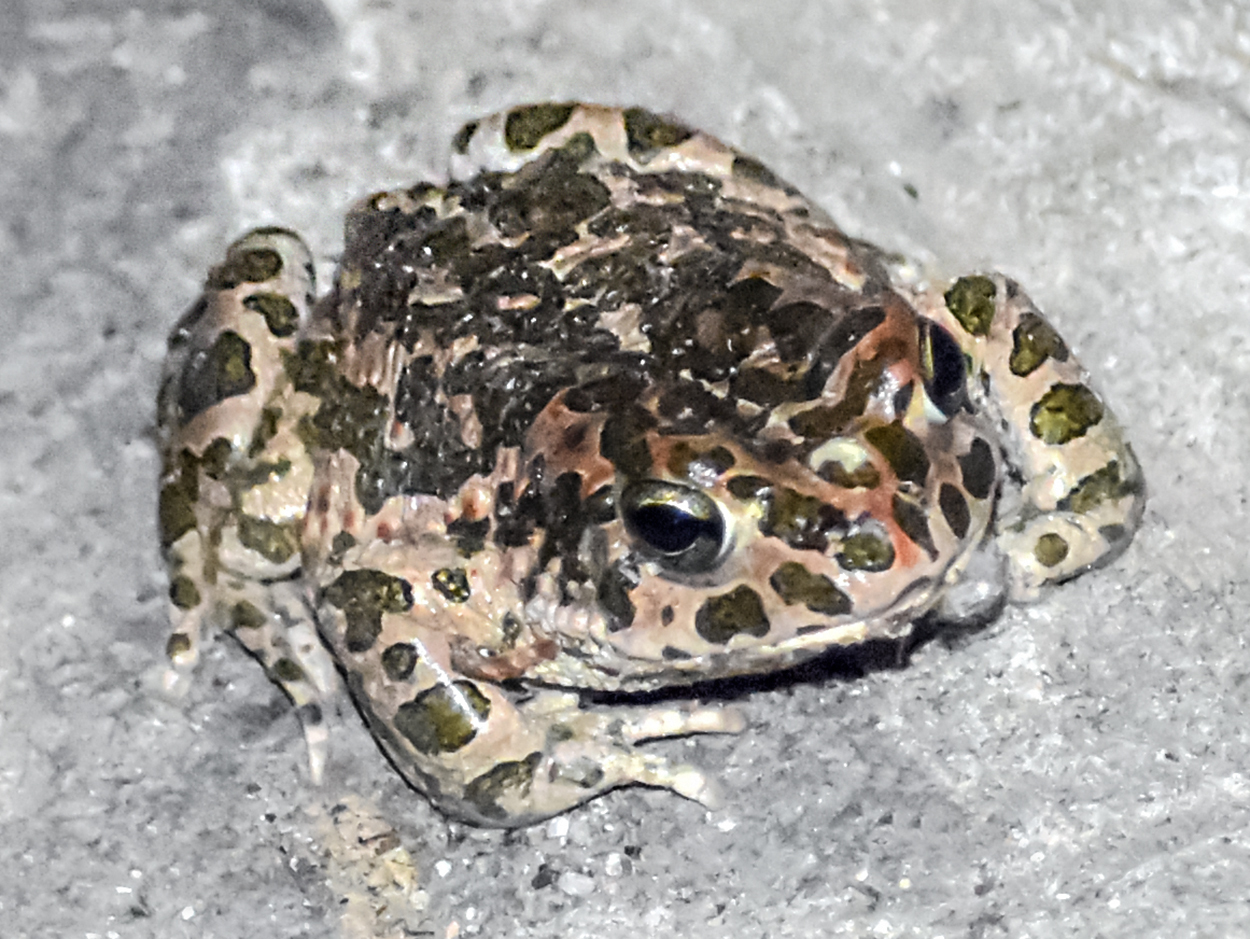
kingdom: Animalia
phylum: Chordata
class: Amphibia
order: Anura
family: Bufonidae
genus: Bufotes
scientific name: Bufotes viridis
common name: European green toad
